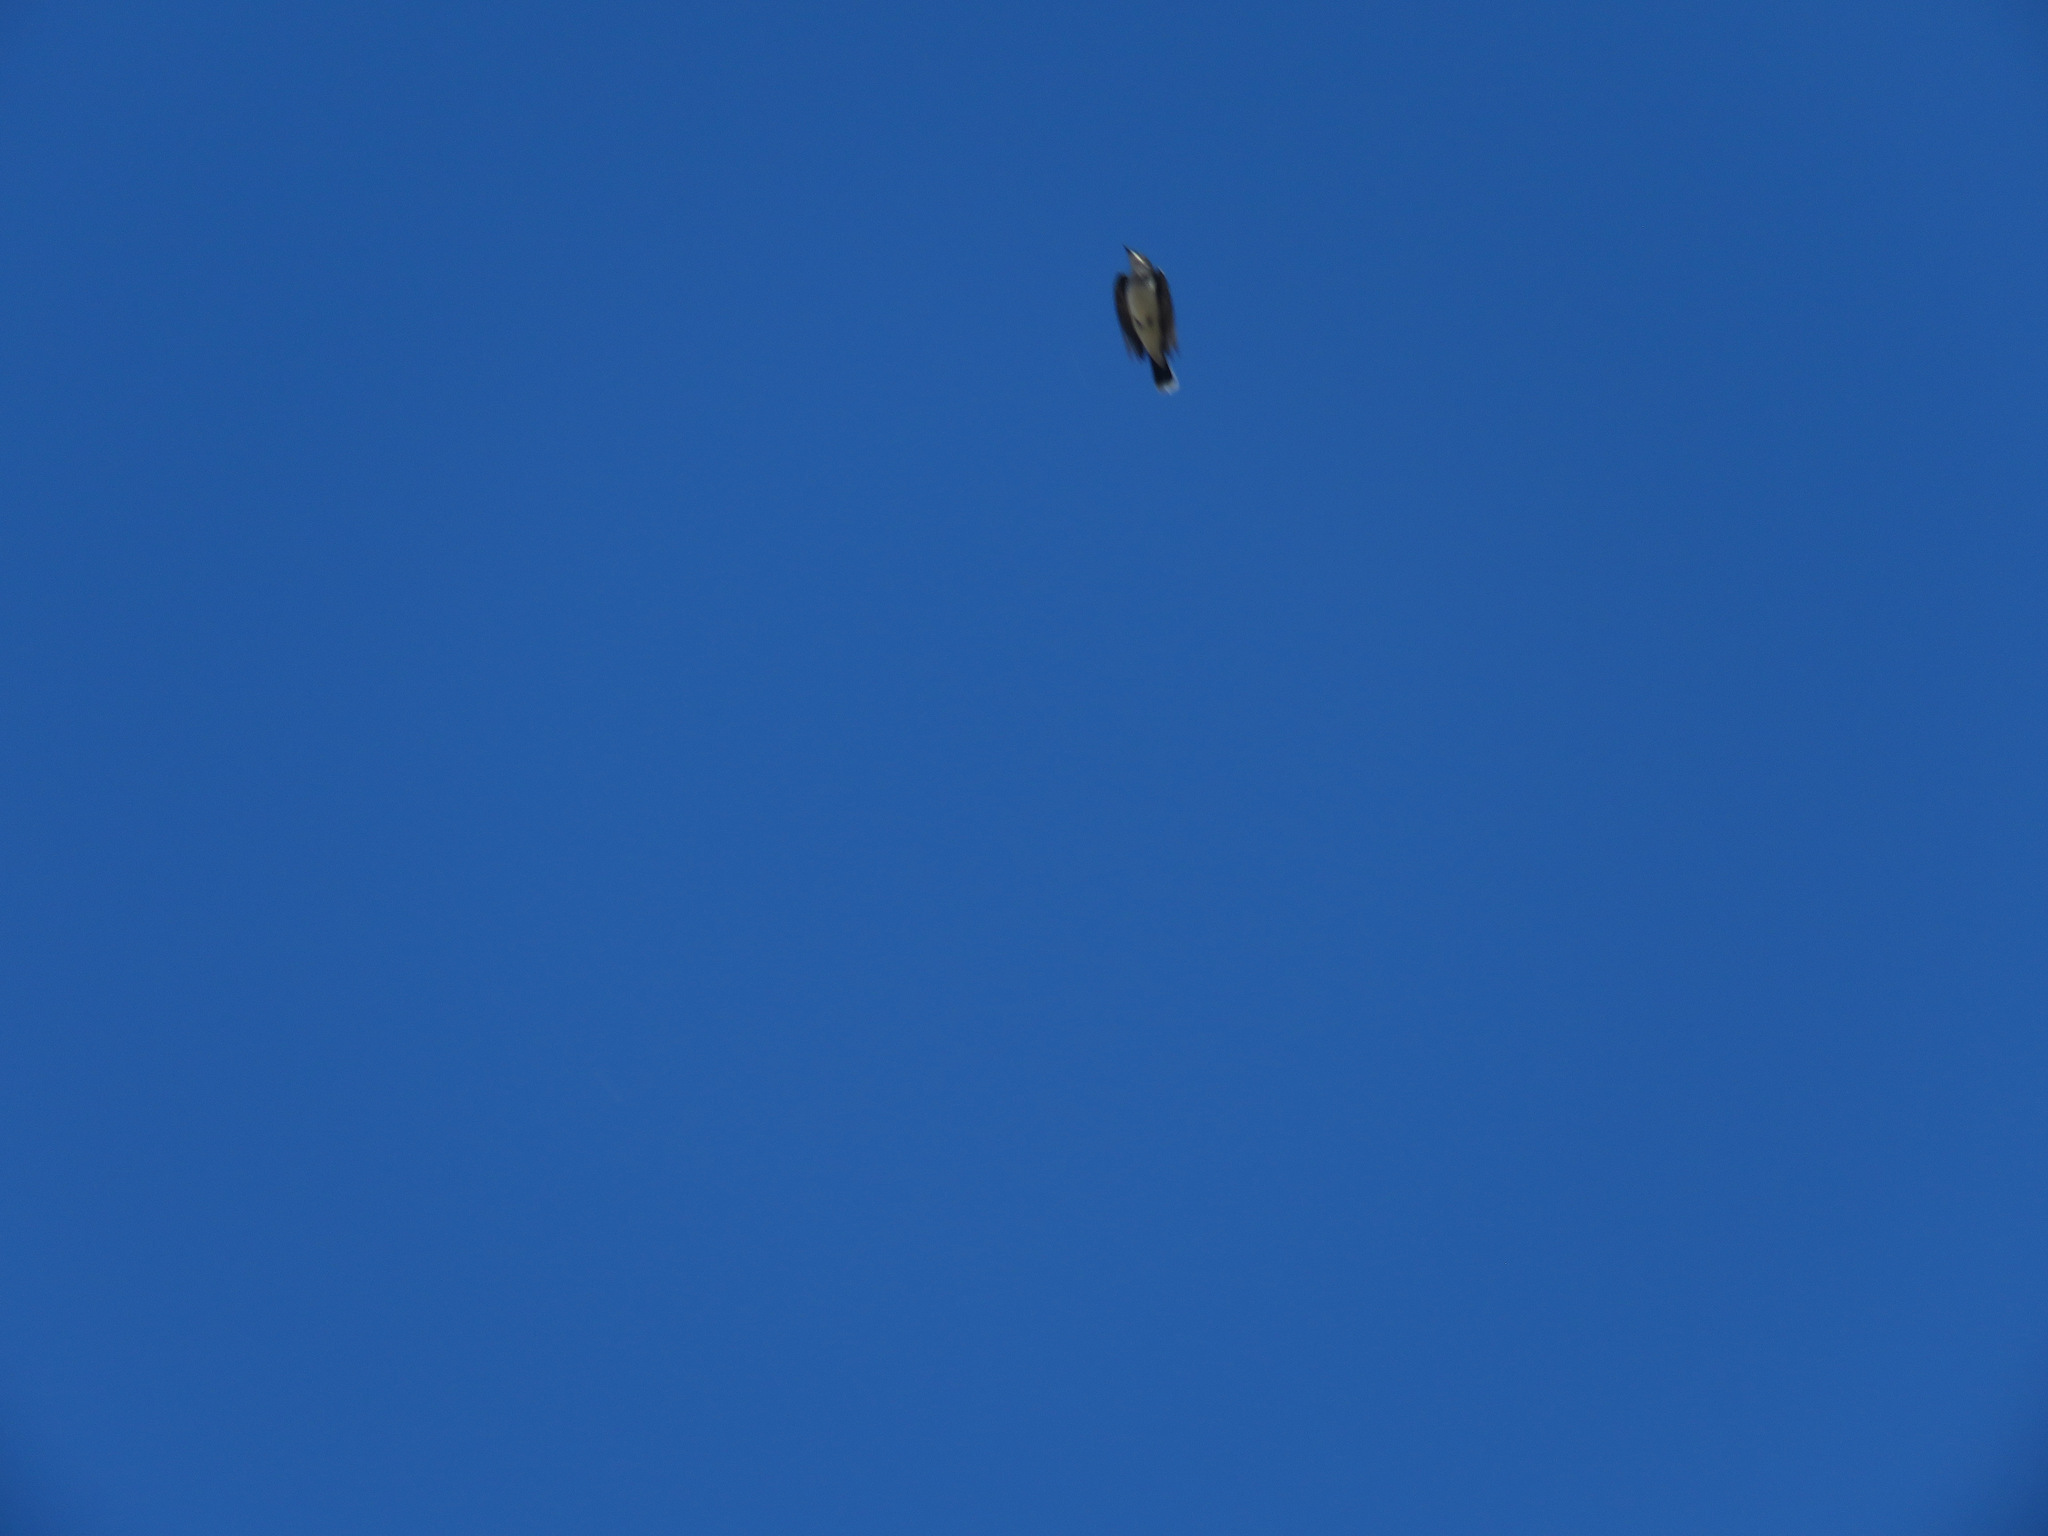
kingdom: Animalia
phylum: Chordata
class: Aves
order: Passeriformes
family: Tyrannidae
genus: Tyrannus
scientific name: Tyrannus tyrannus
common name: Eastern kingbird
